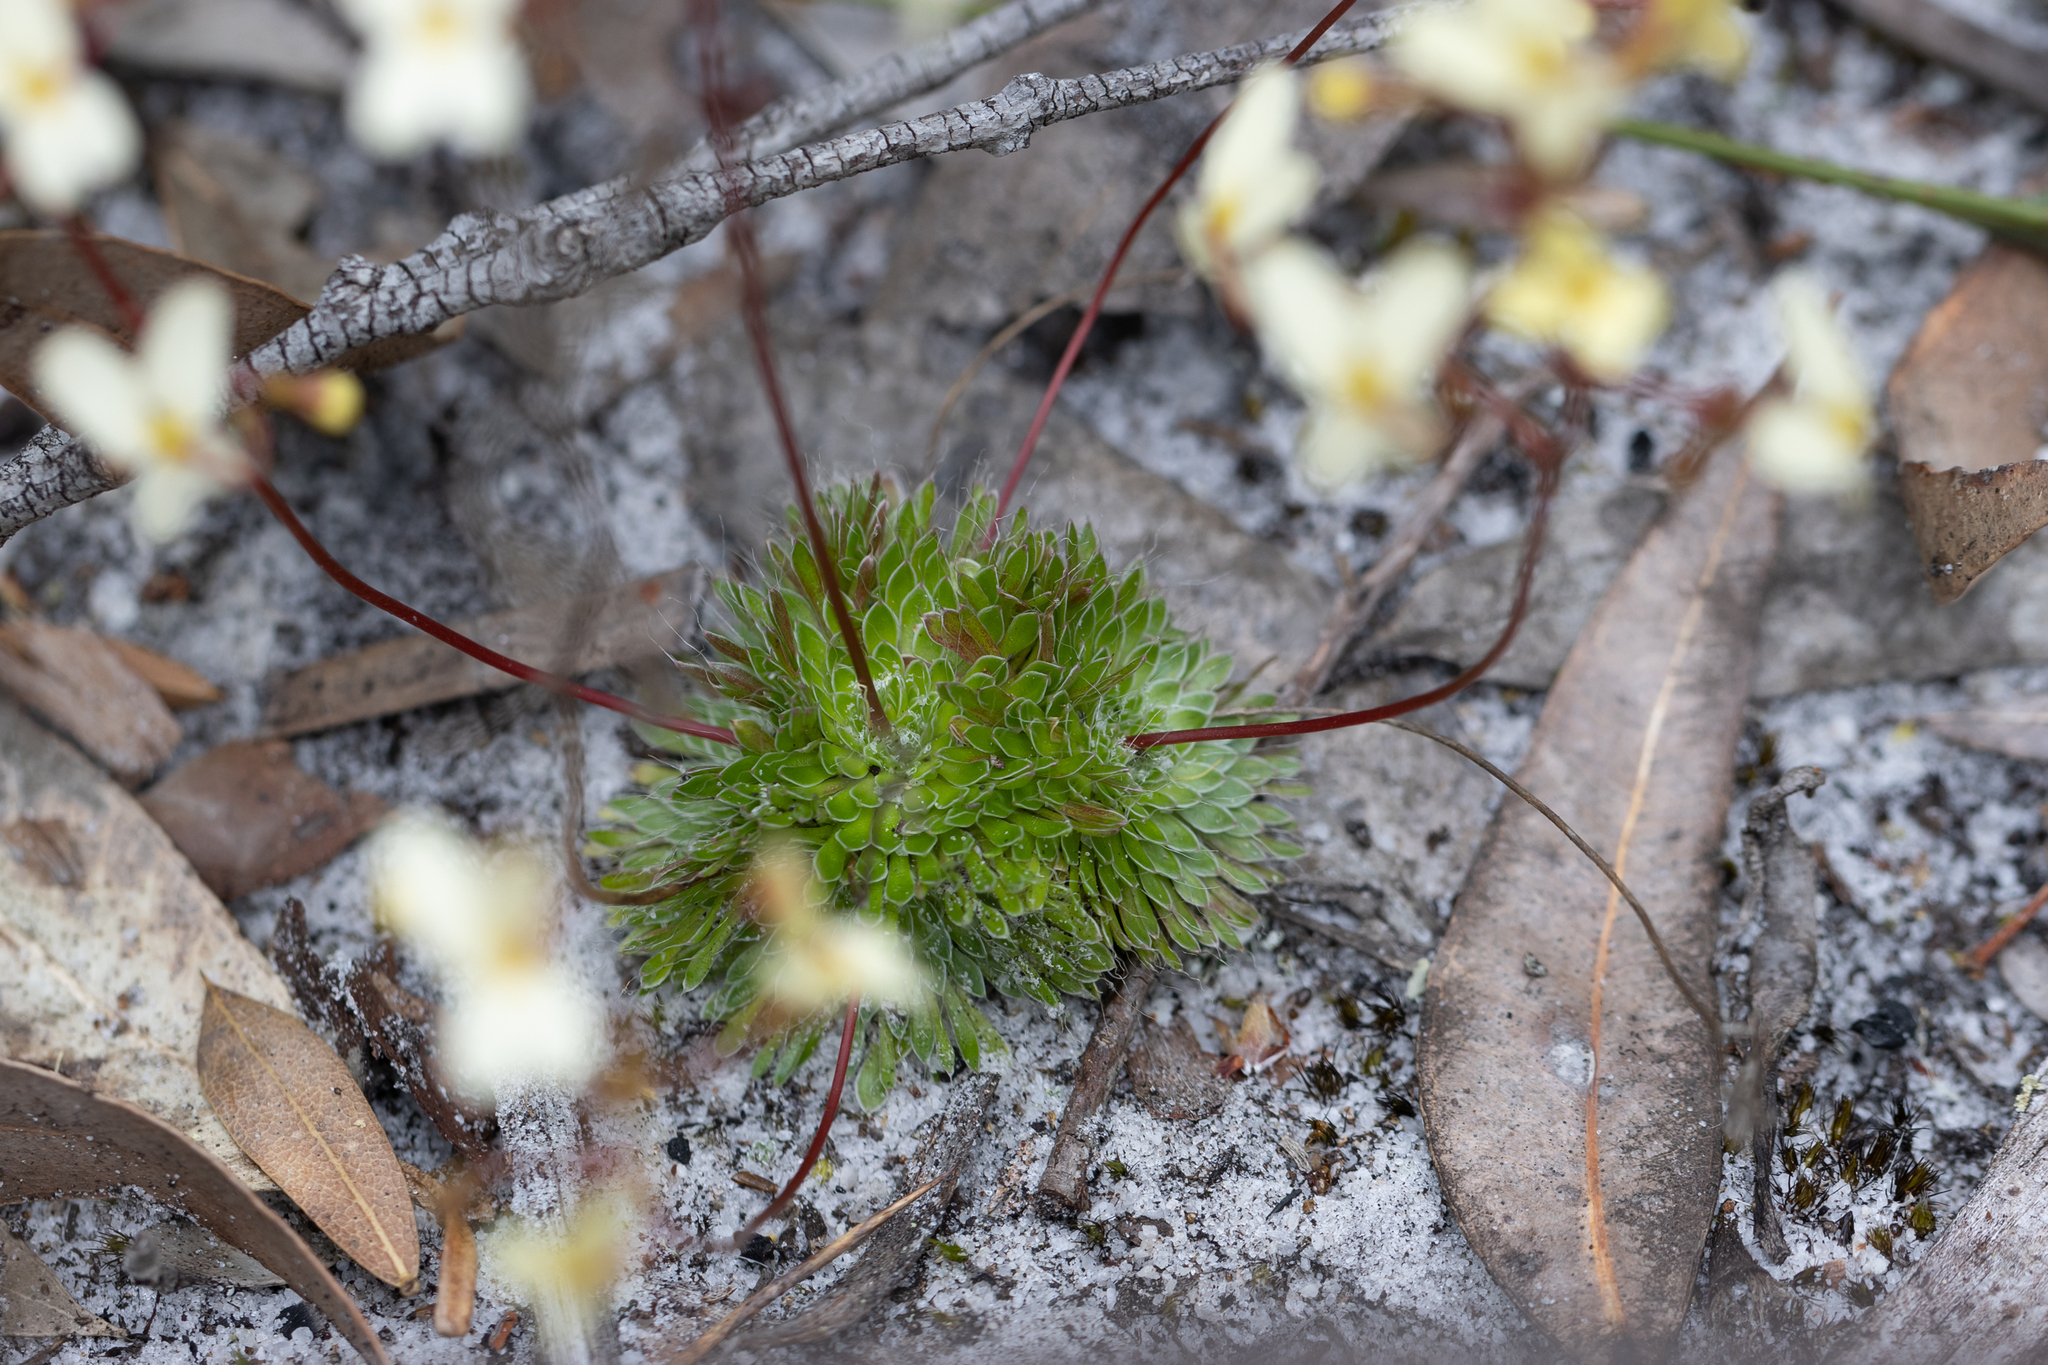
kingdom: Plantae
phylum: Tracheophyta
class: Magnoliopsida
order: Asterales
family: Stylidiaceae
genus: Stylidium
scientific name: Stylidium piliferum
